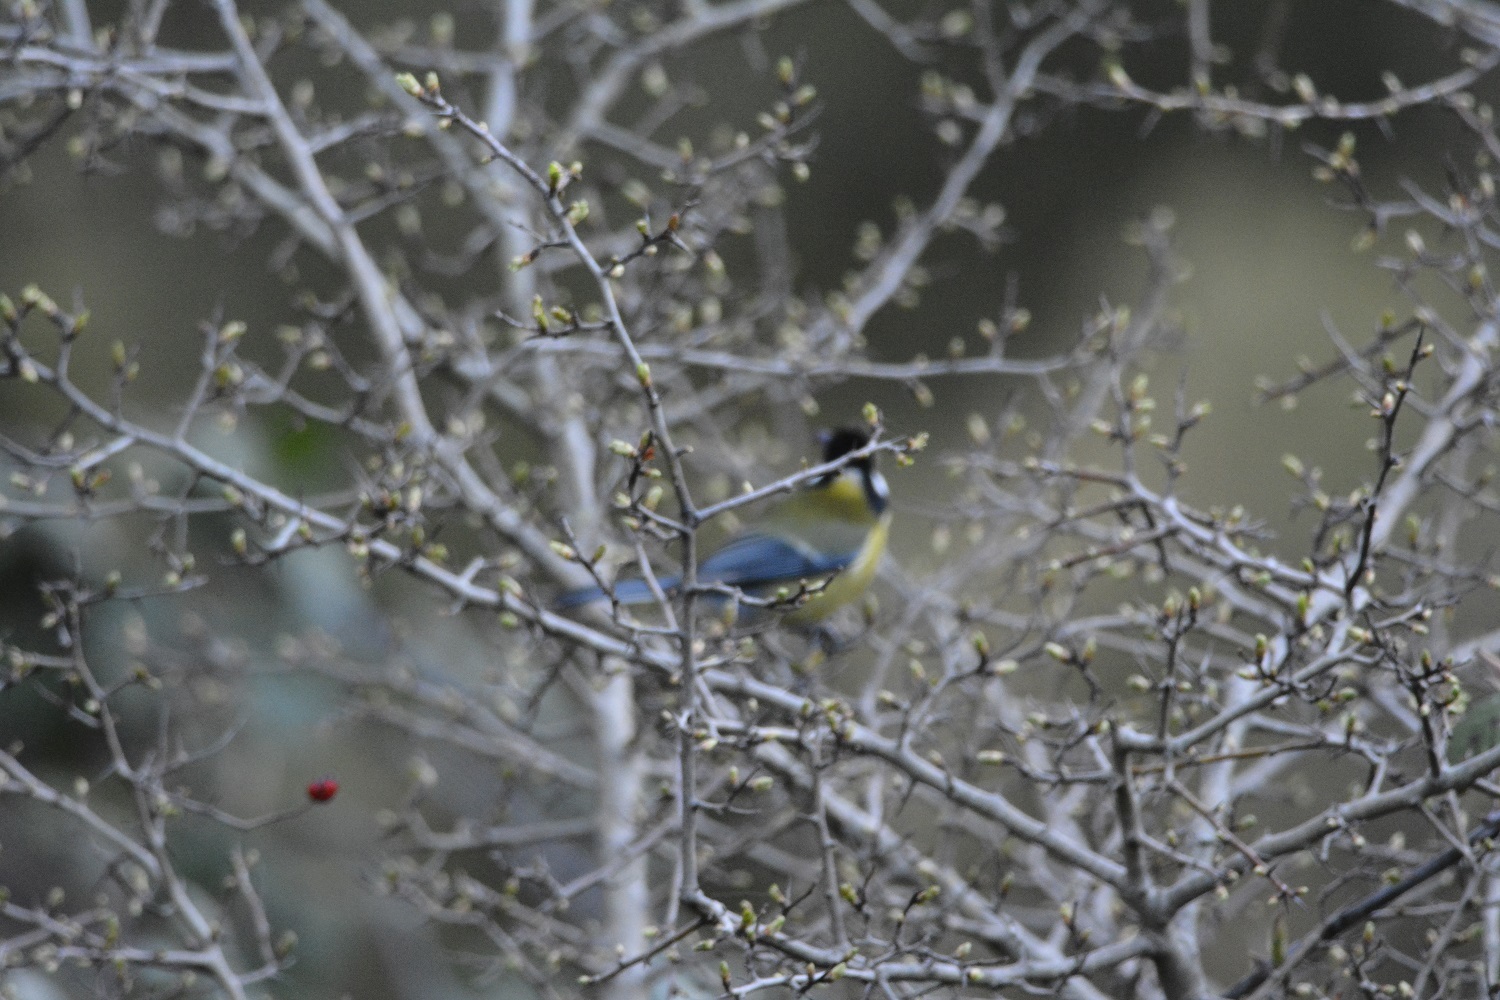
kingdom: Animalia
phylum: Chordata
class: Aves
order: Passeriformes
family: Paridae
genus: Parus
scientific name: Parus major
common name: Great tit
